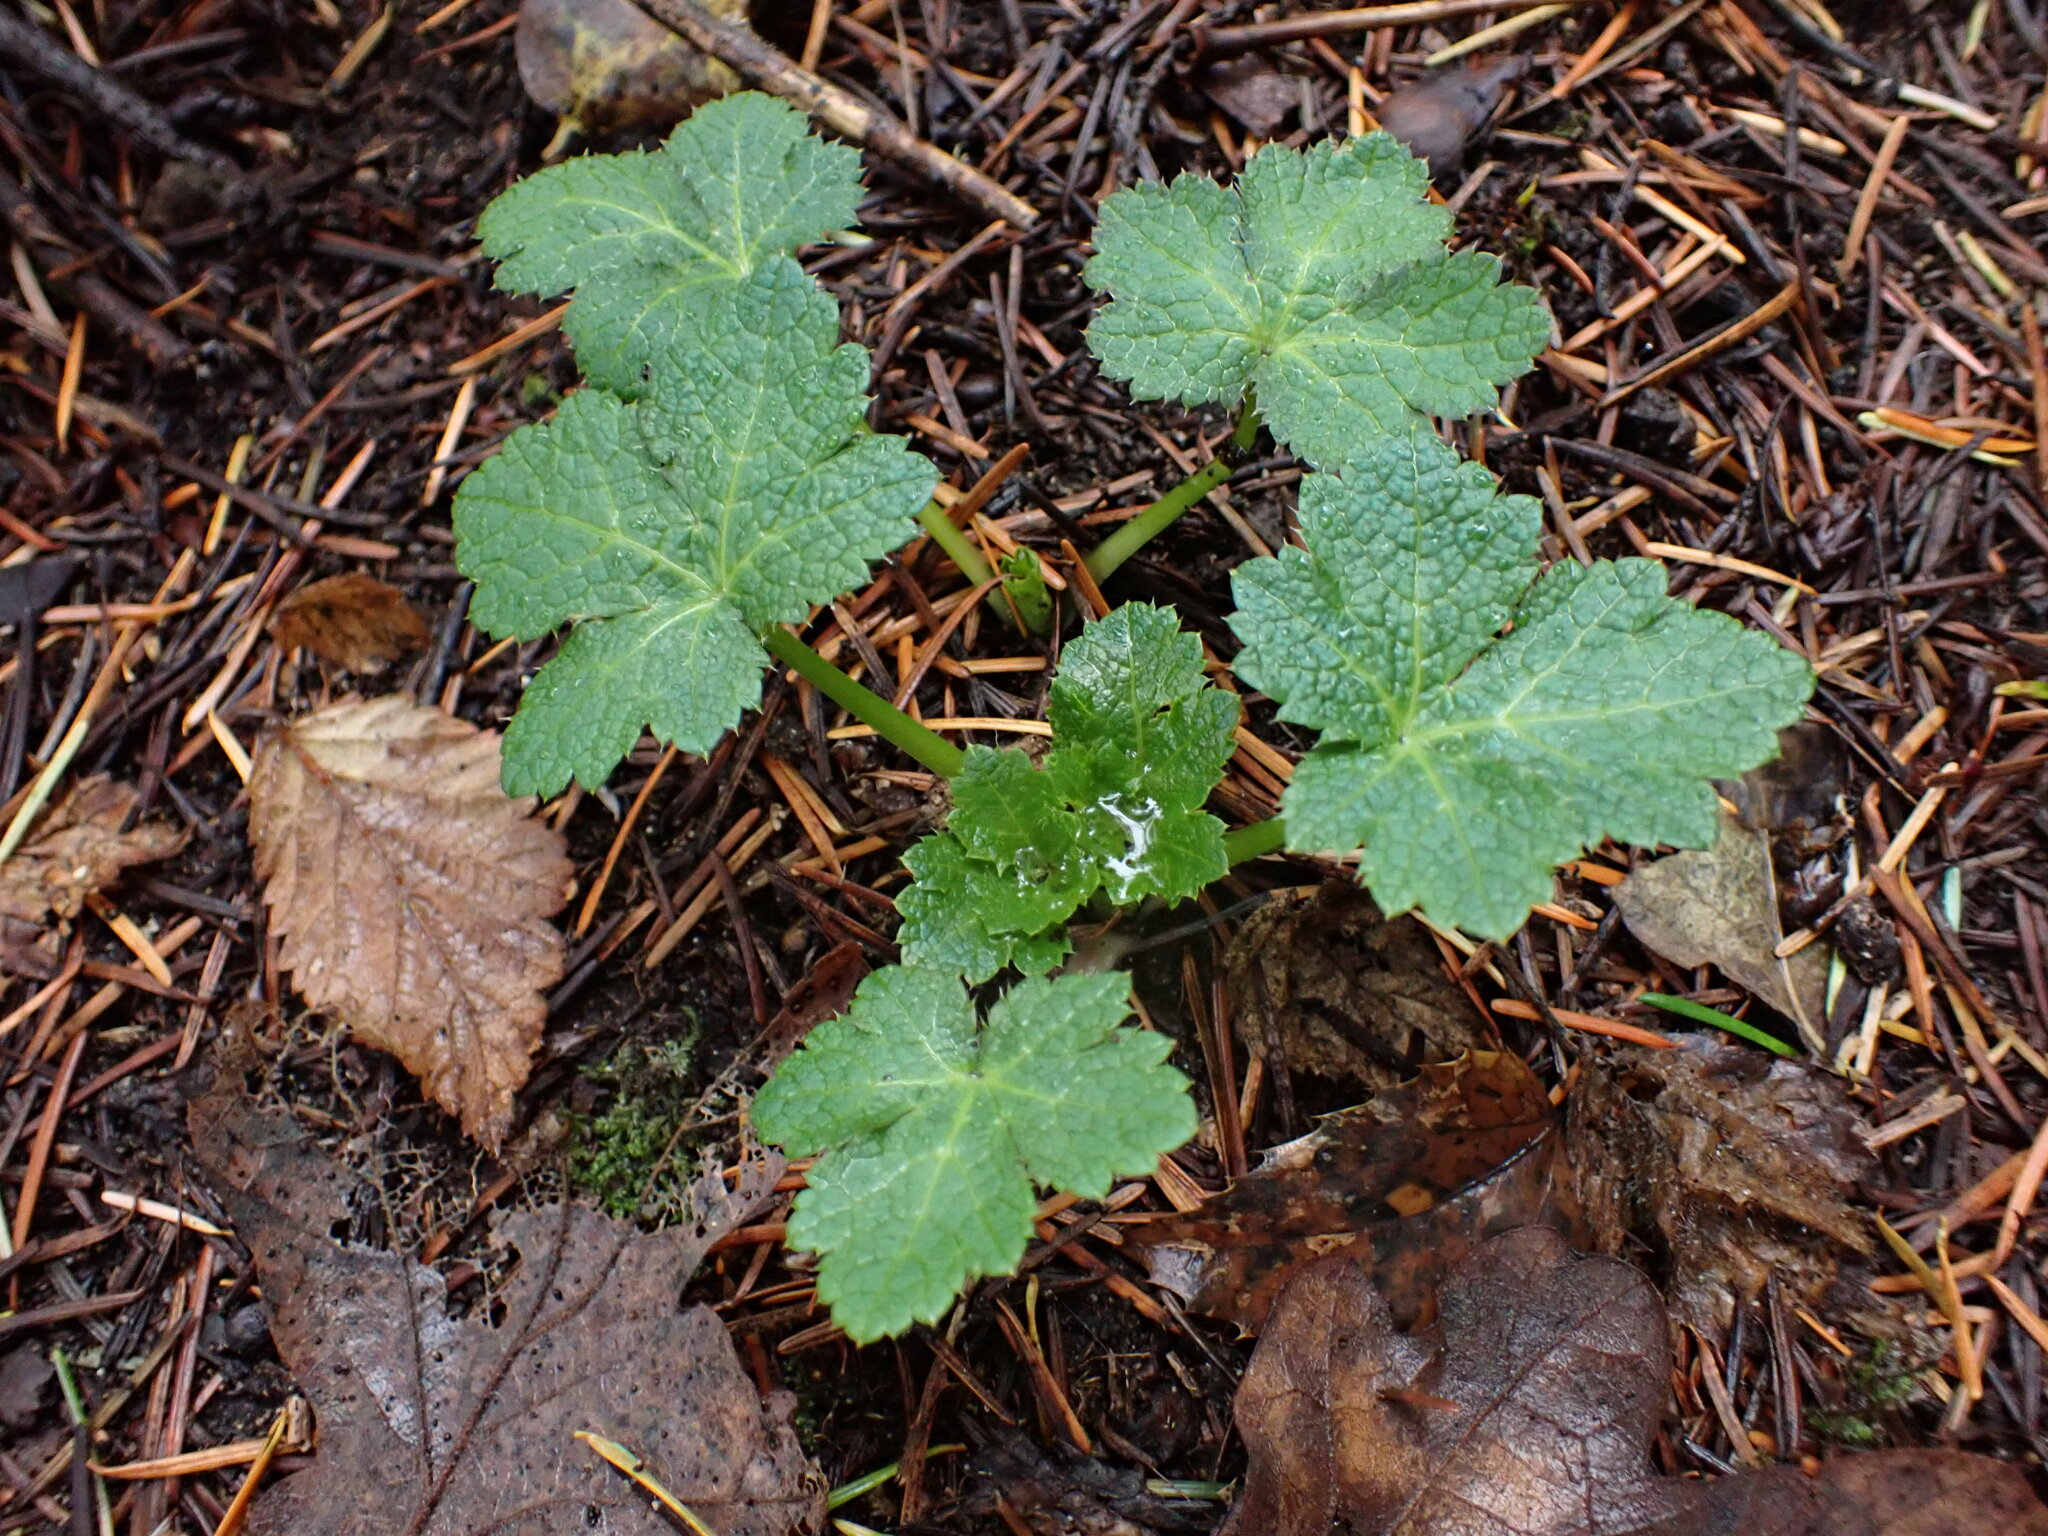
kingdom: Plantae
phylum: Tracheophyta
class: Magnoliopsida
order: Apiales
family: Apiaceae
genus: Sanicula
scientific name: Sanicula crassicaulis
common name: Western snakeroot
